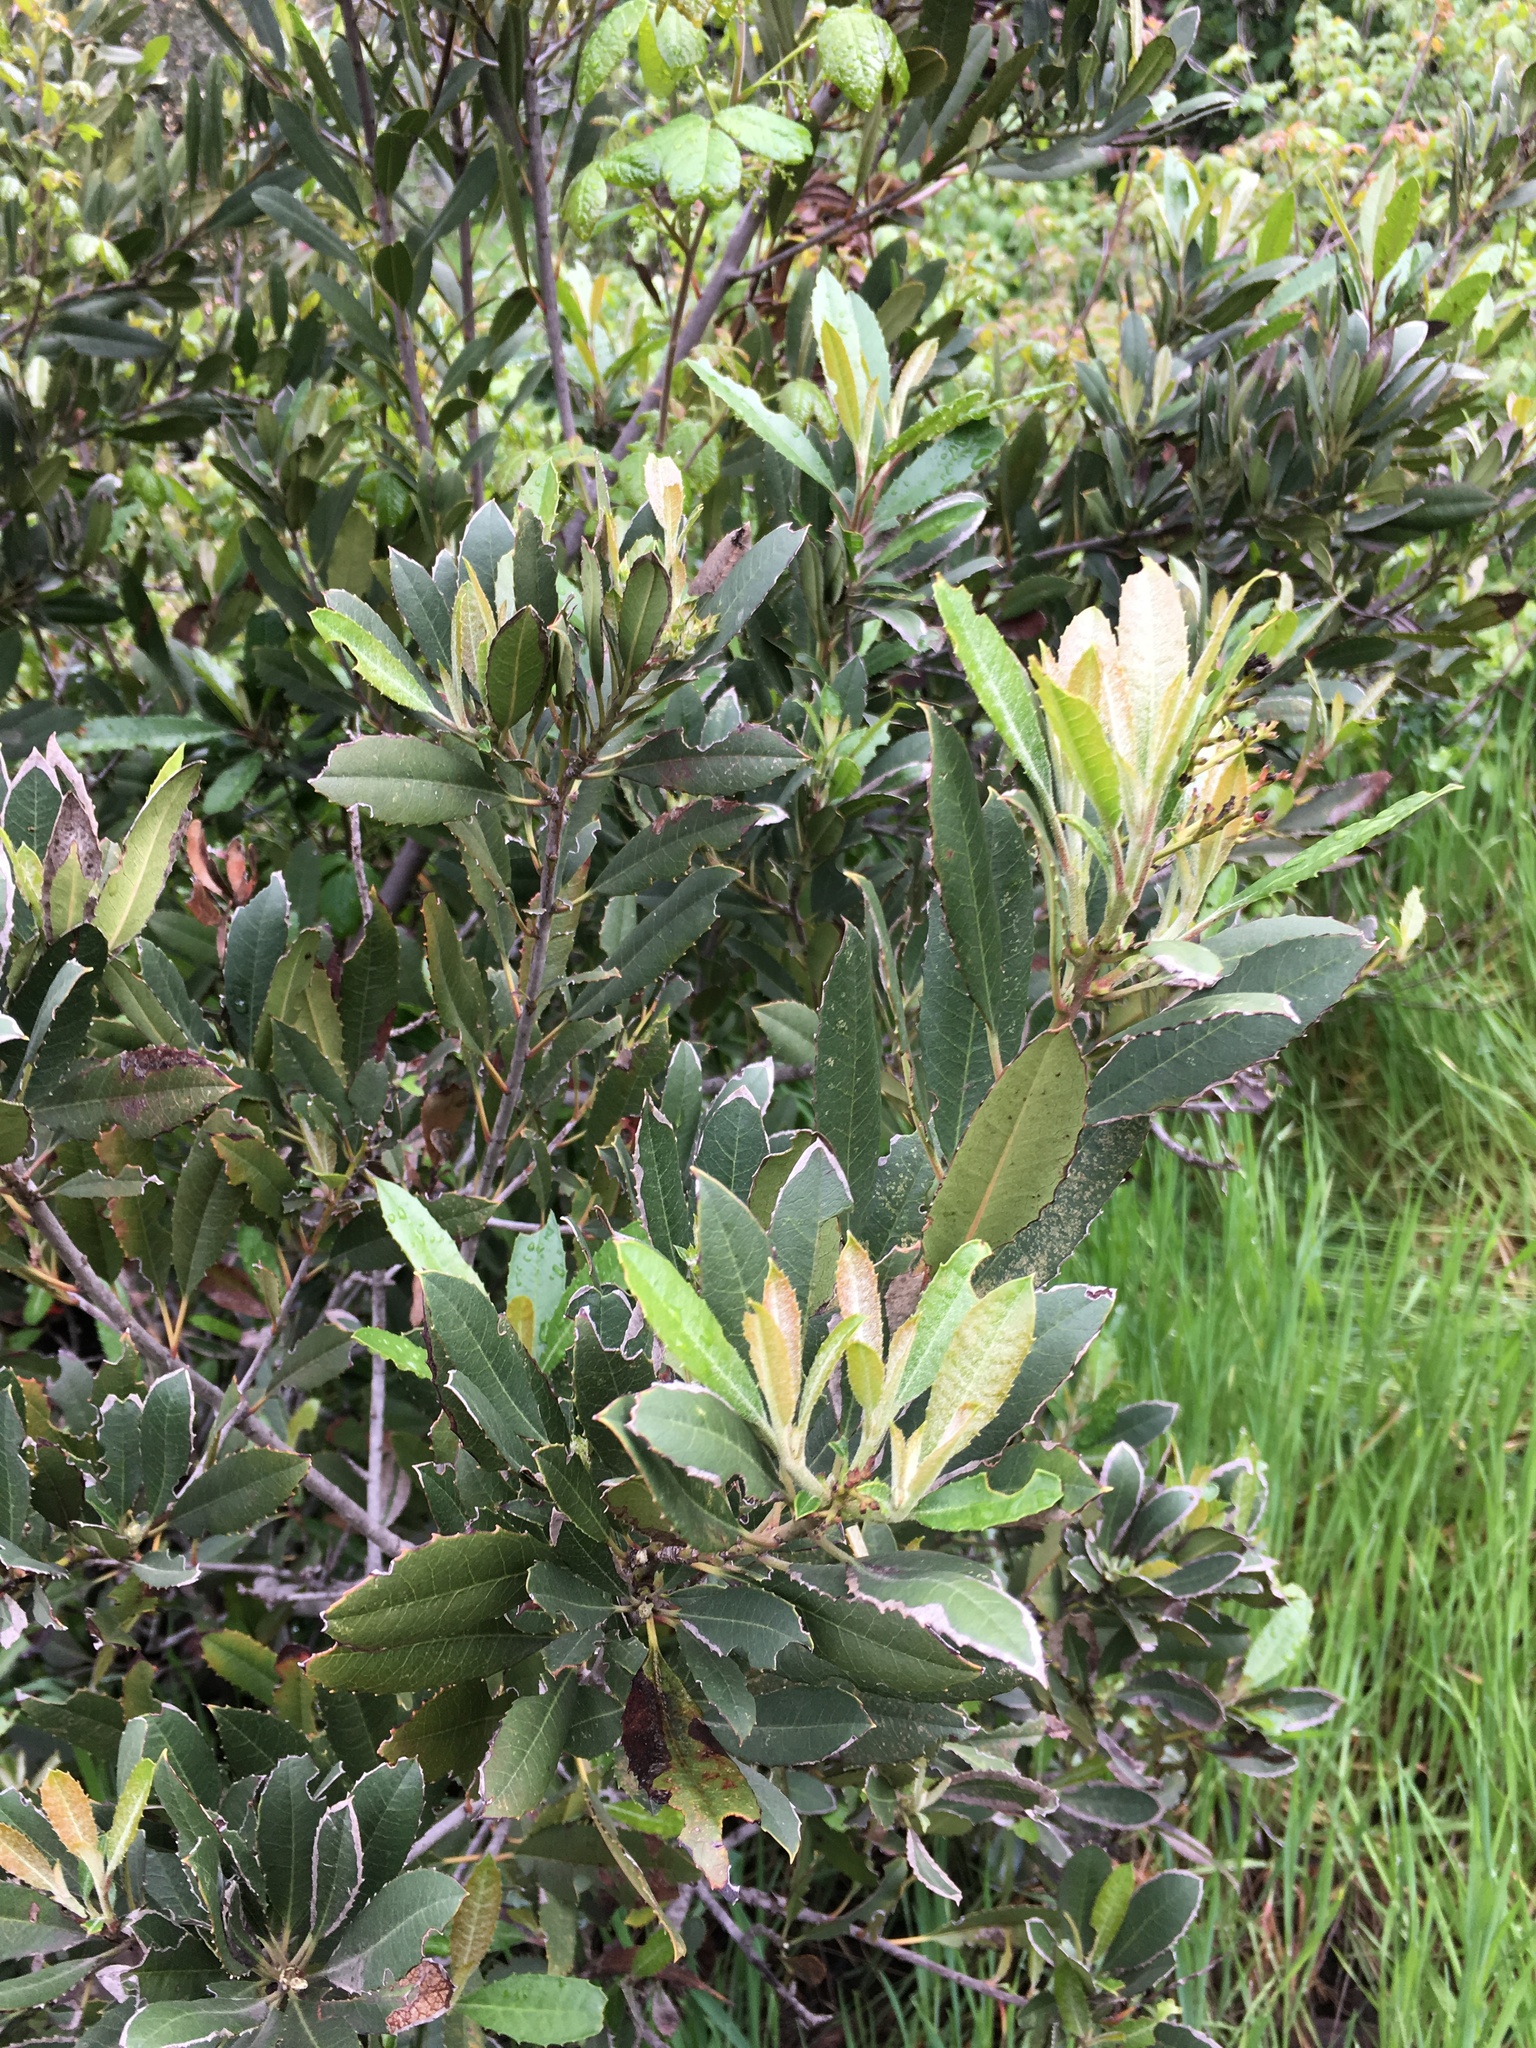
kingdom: Plantae
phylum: Tracheophyta
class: Magnoliopsida
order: Rosales
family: Rosaceae
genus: Heteromeles
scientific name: Heteromeles arbutifolia
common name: California-holly
